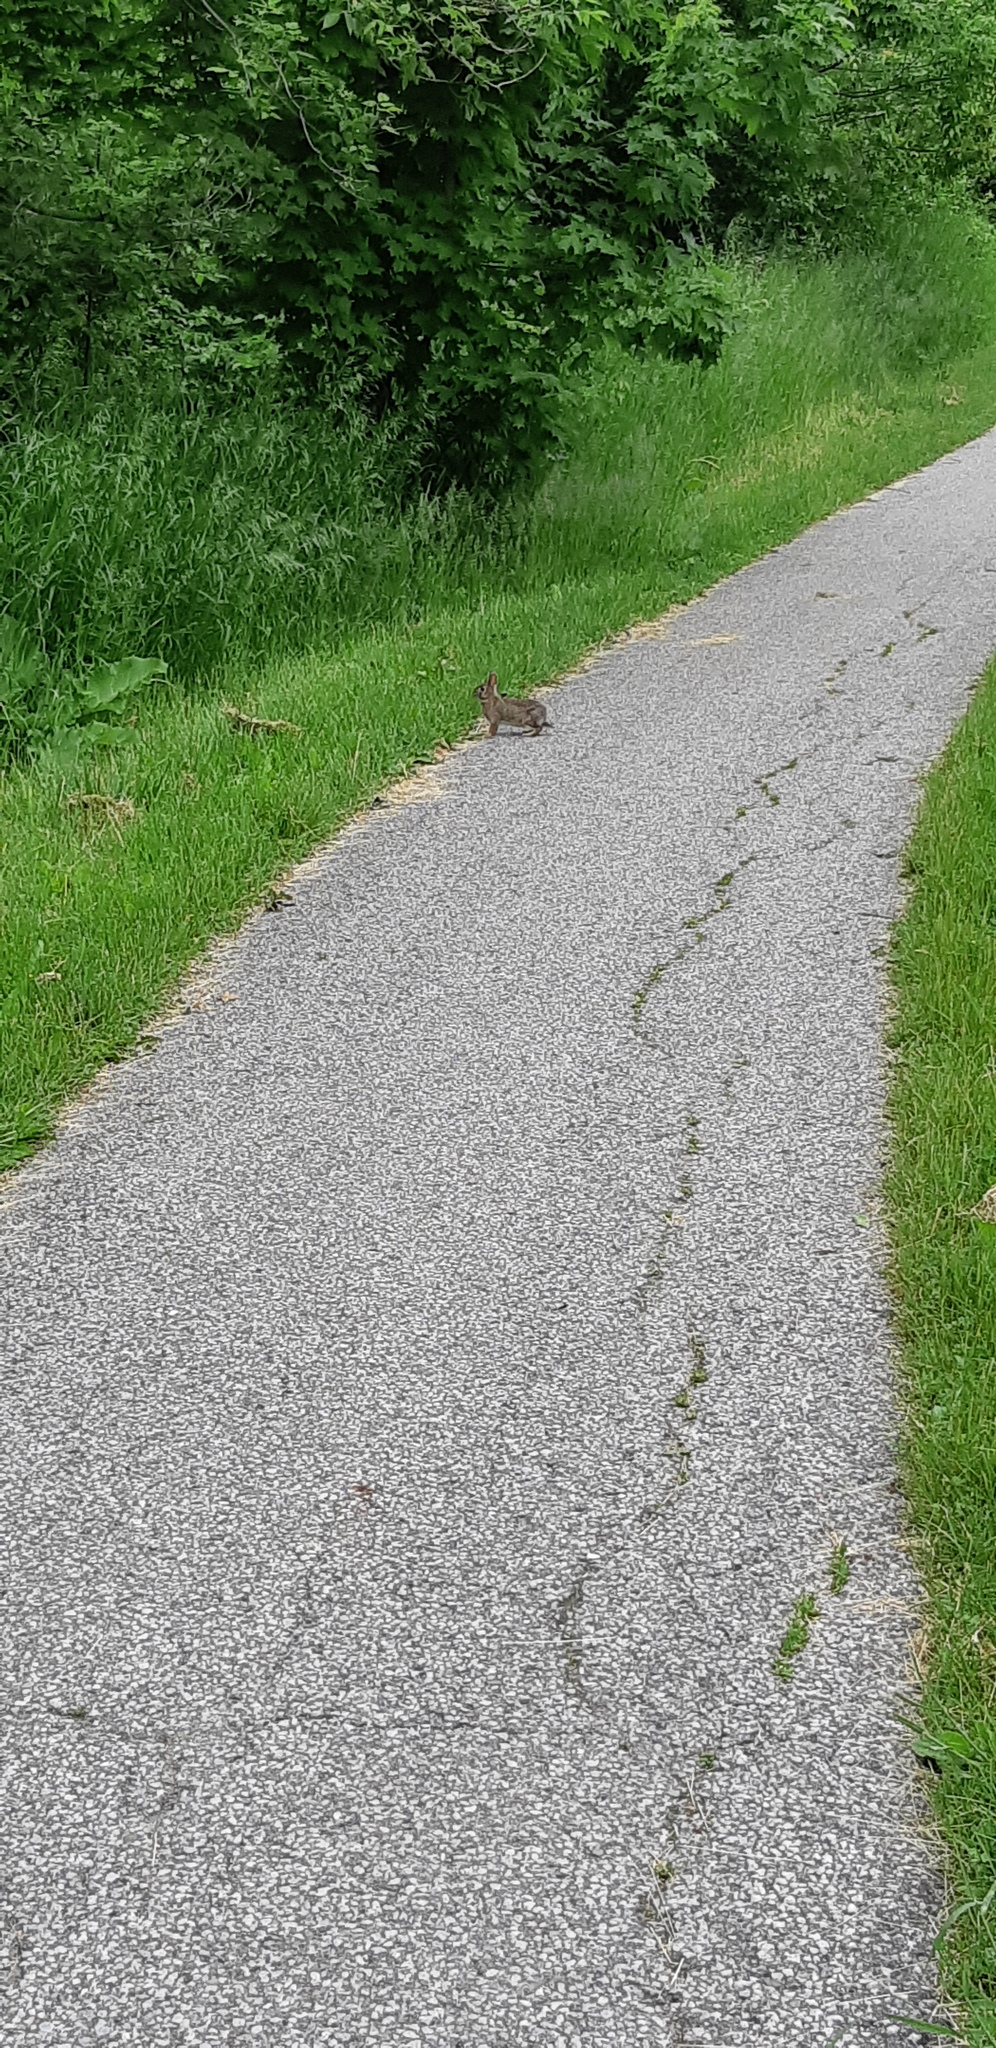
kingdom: Animalia
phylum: Chordata
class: Mammalia
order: Lagomorpha
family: Leporidae
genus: Sylvilagus
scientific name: Sylvilagus floridanus
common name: Eastern cottontail
